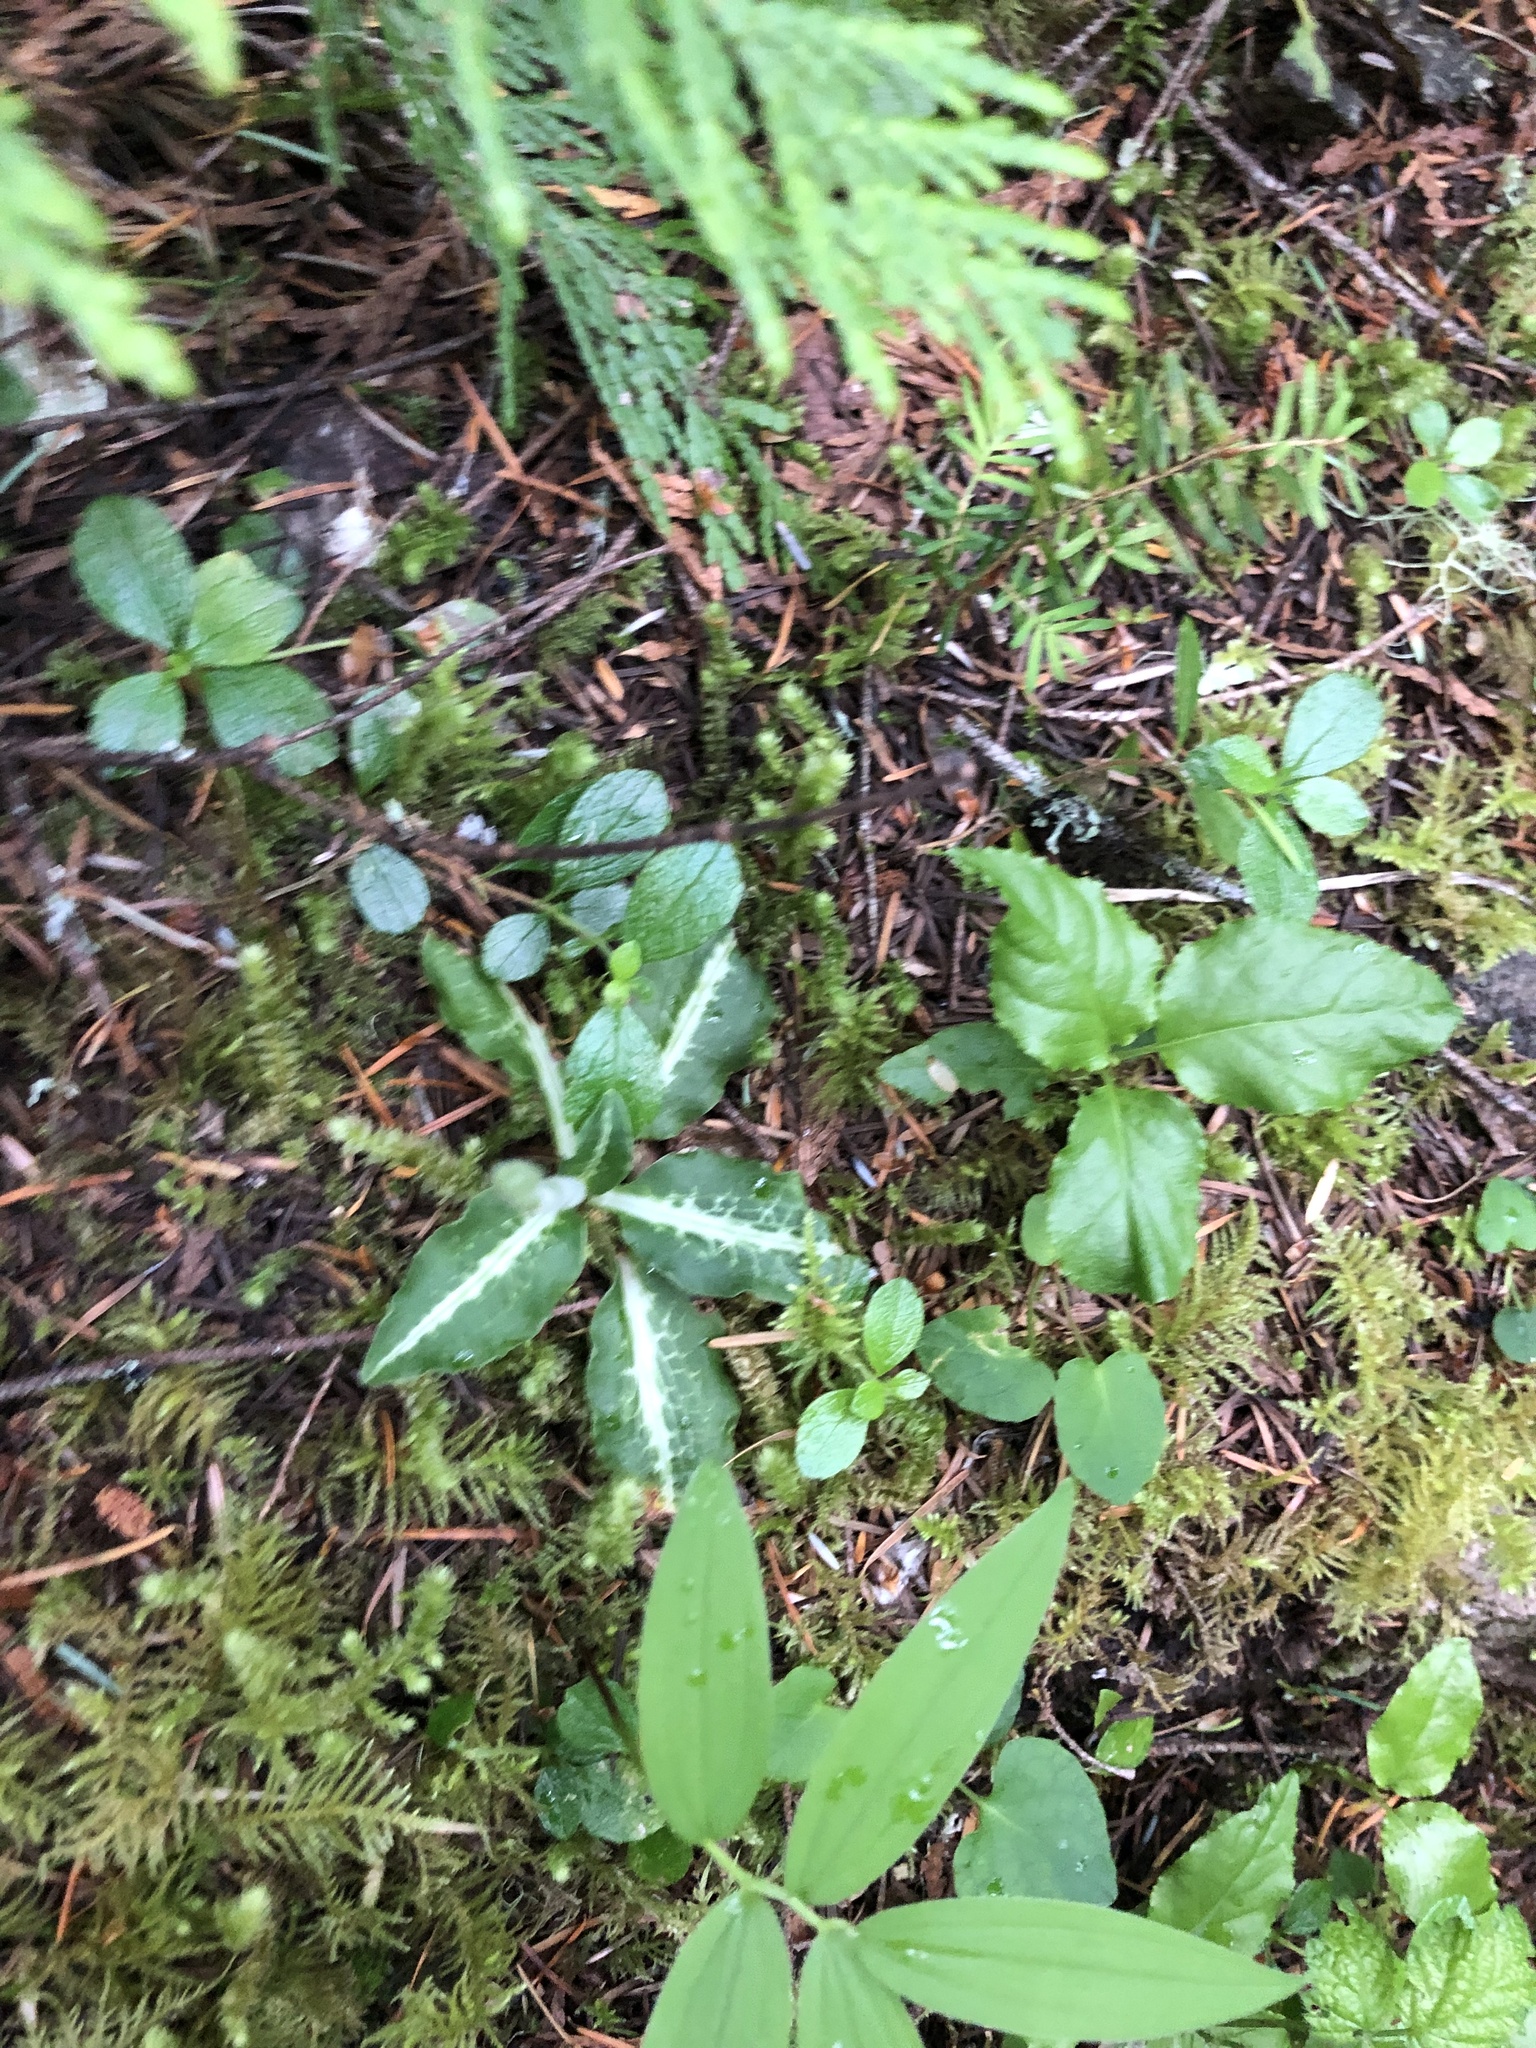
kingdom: Plantae
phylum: Tracheophyta
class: Liliopsida
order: Asparagales
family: Orchidaceae
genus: Goodyera
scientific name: Goodyera oblongifolia
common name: Giant rattlesnake-plantain
